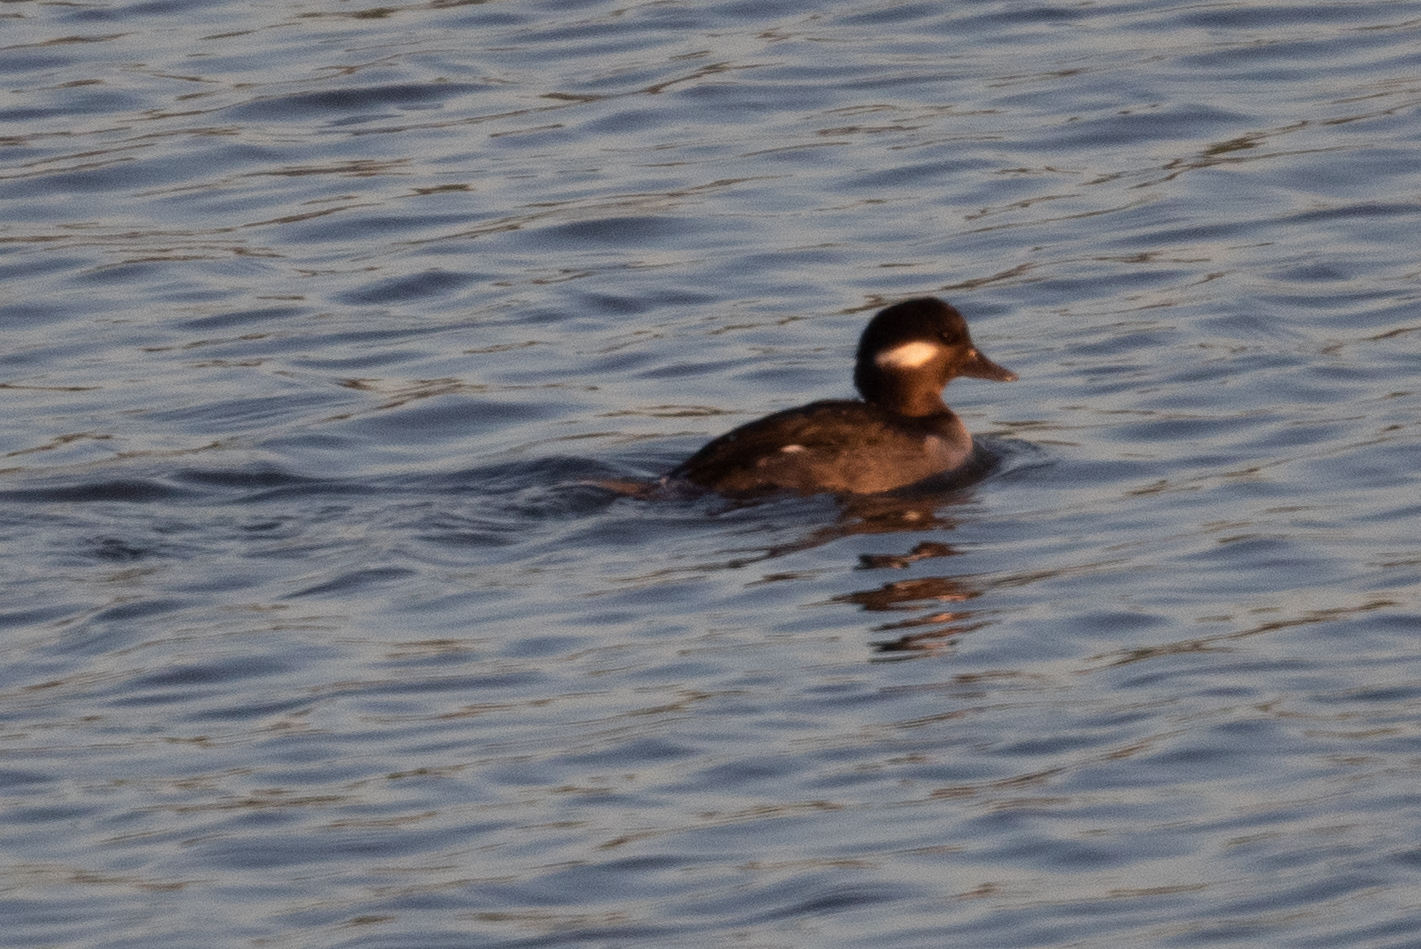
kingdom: Animalia
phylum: Chordata
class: Aves
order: Anseriformes
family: Anatidae
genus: Bucephala
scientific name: Bucephala albeola
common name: Bufflehead
